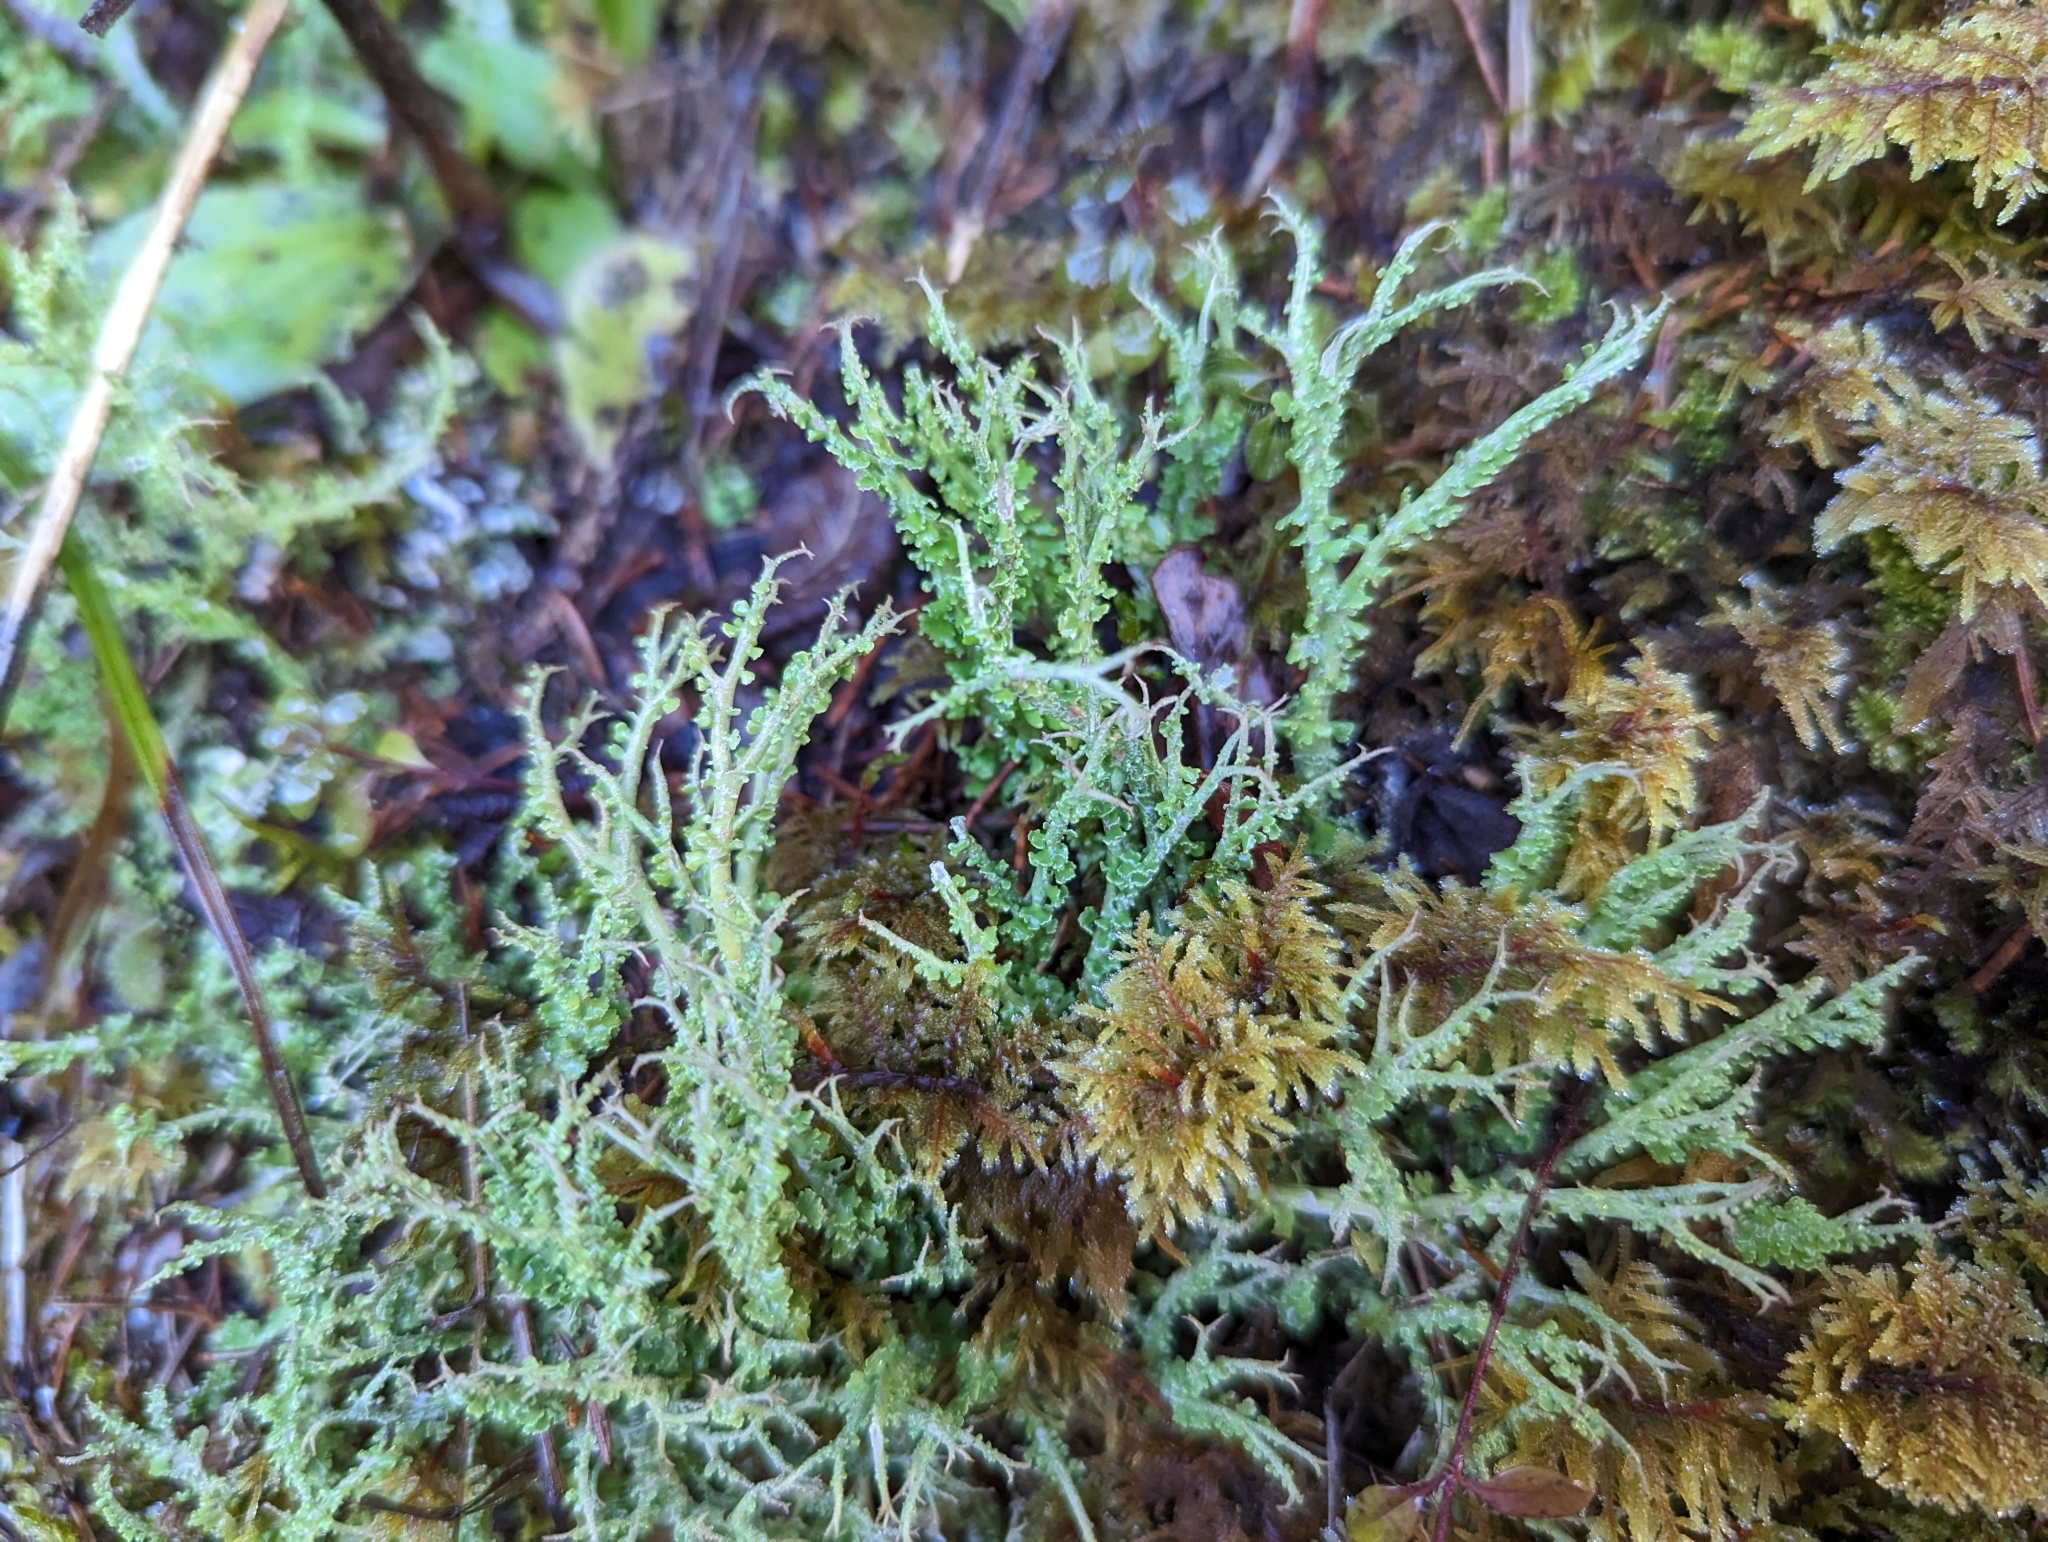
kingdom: Fungi
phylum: Ascomycota
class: Lecanoromycetes
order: Lecanorales
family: Cladoniaceae
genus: Cladonia
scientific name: Cladonia furcata
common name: Many-forked cladonia
